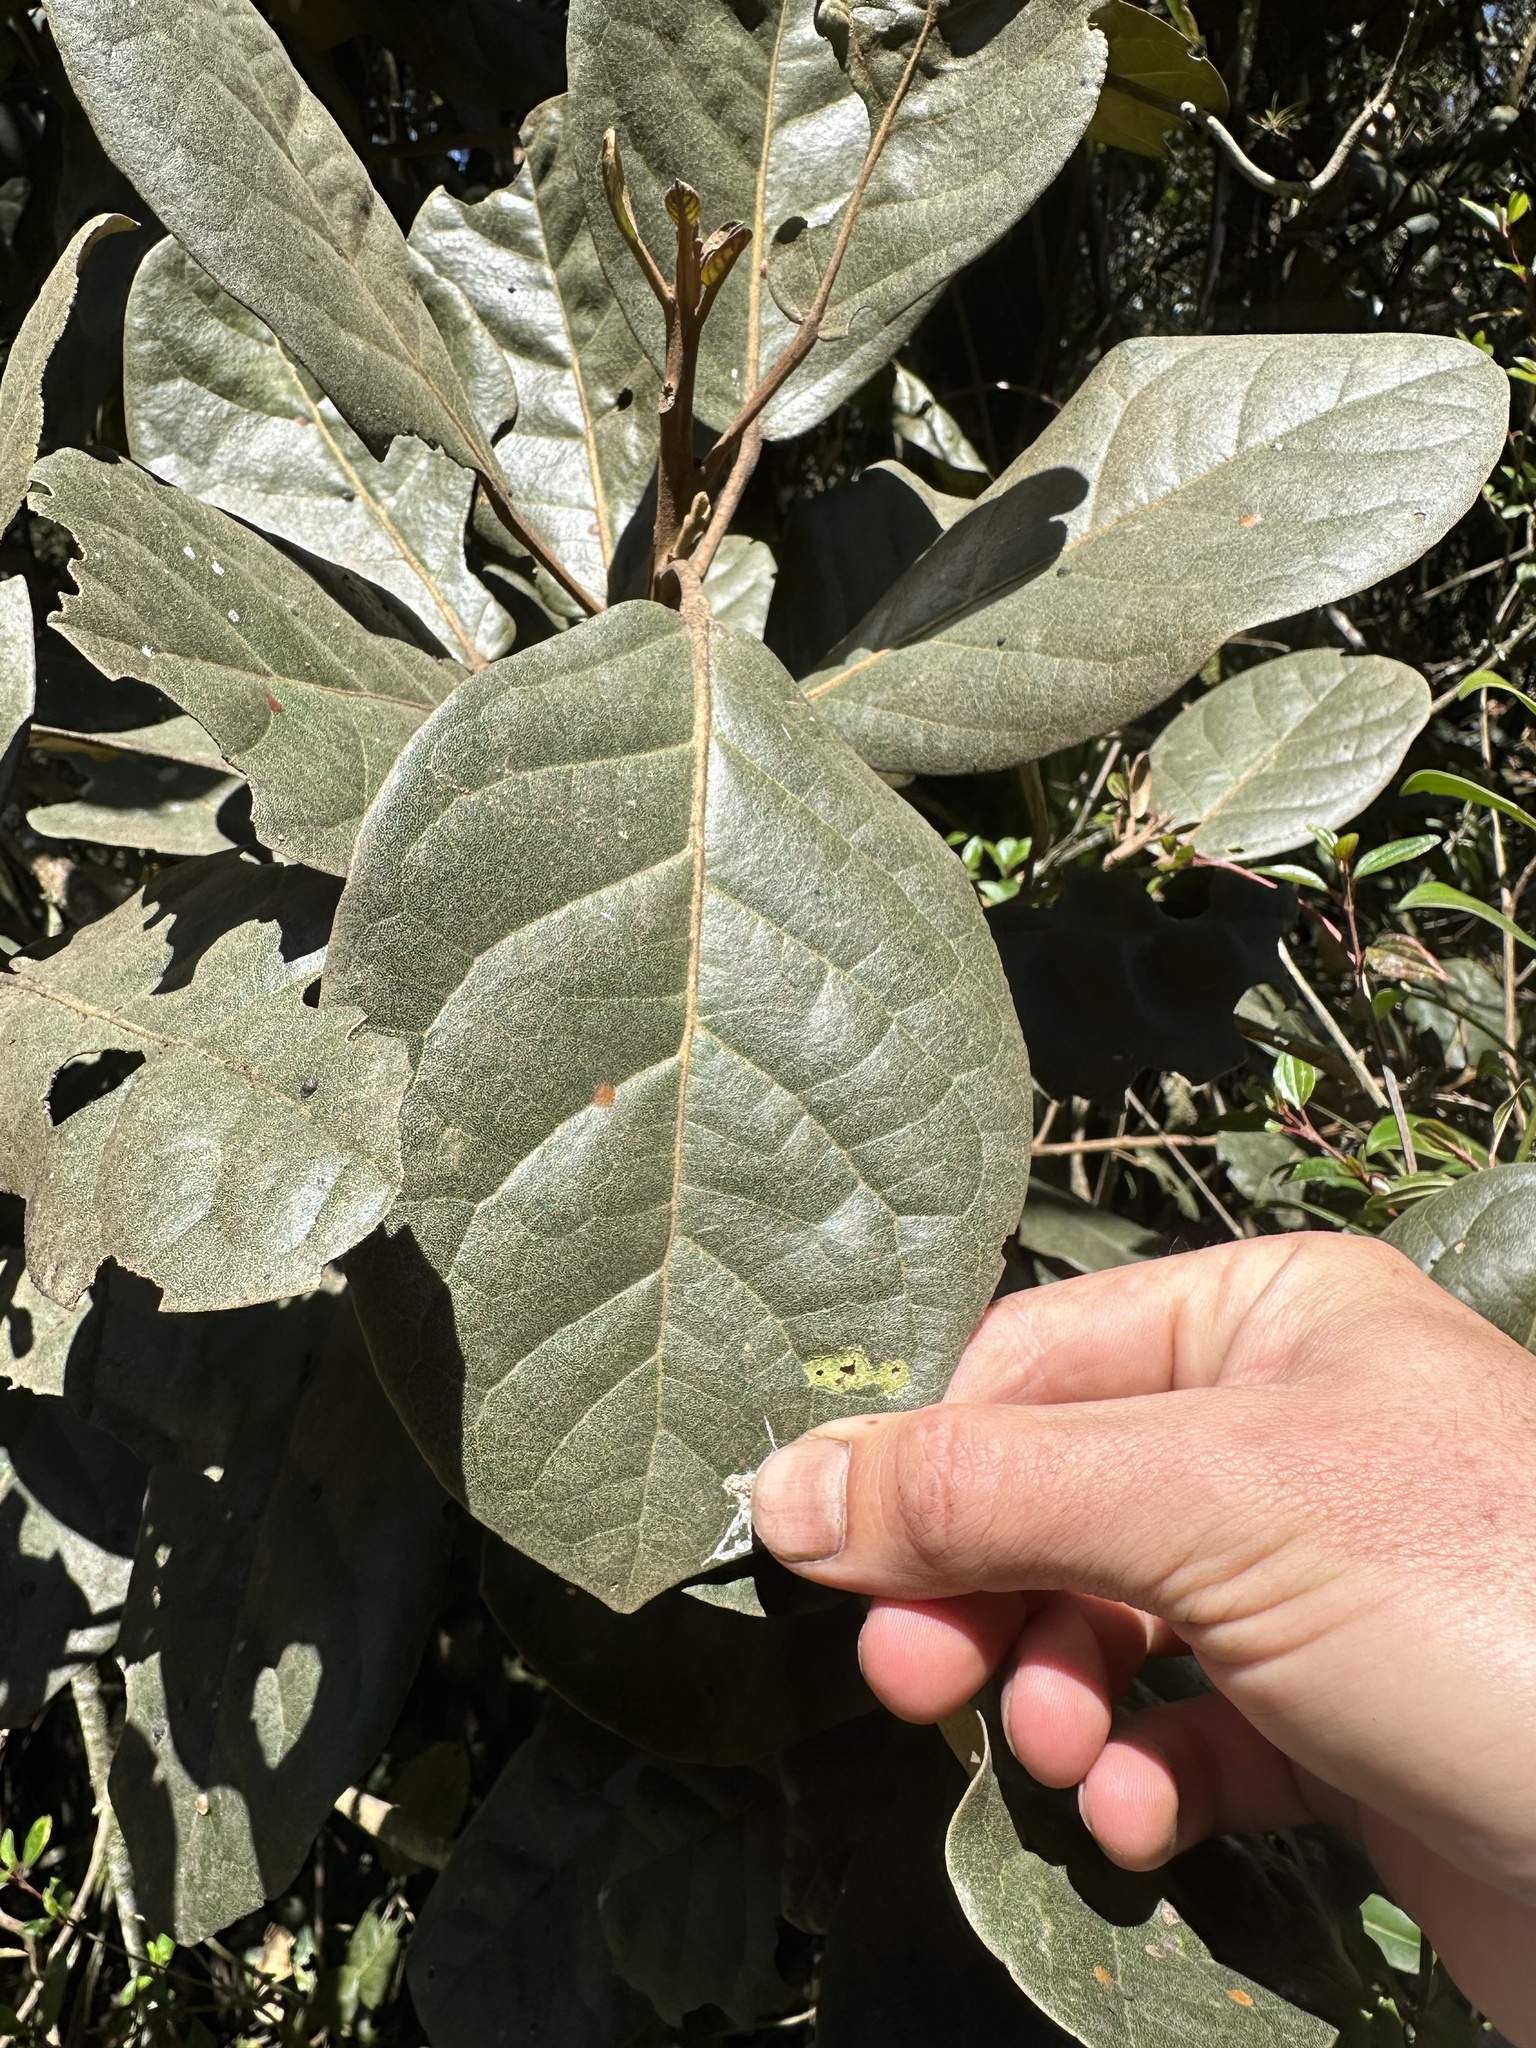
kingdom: Plantae
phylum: Tracheophyta
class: Magnoliopsida
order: Malpighiales
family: Phyllanthaceae
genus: Hieronyma
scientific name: Hieronyma rufa
